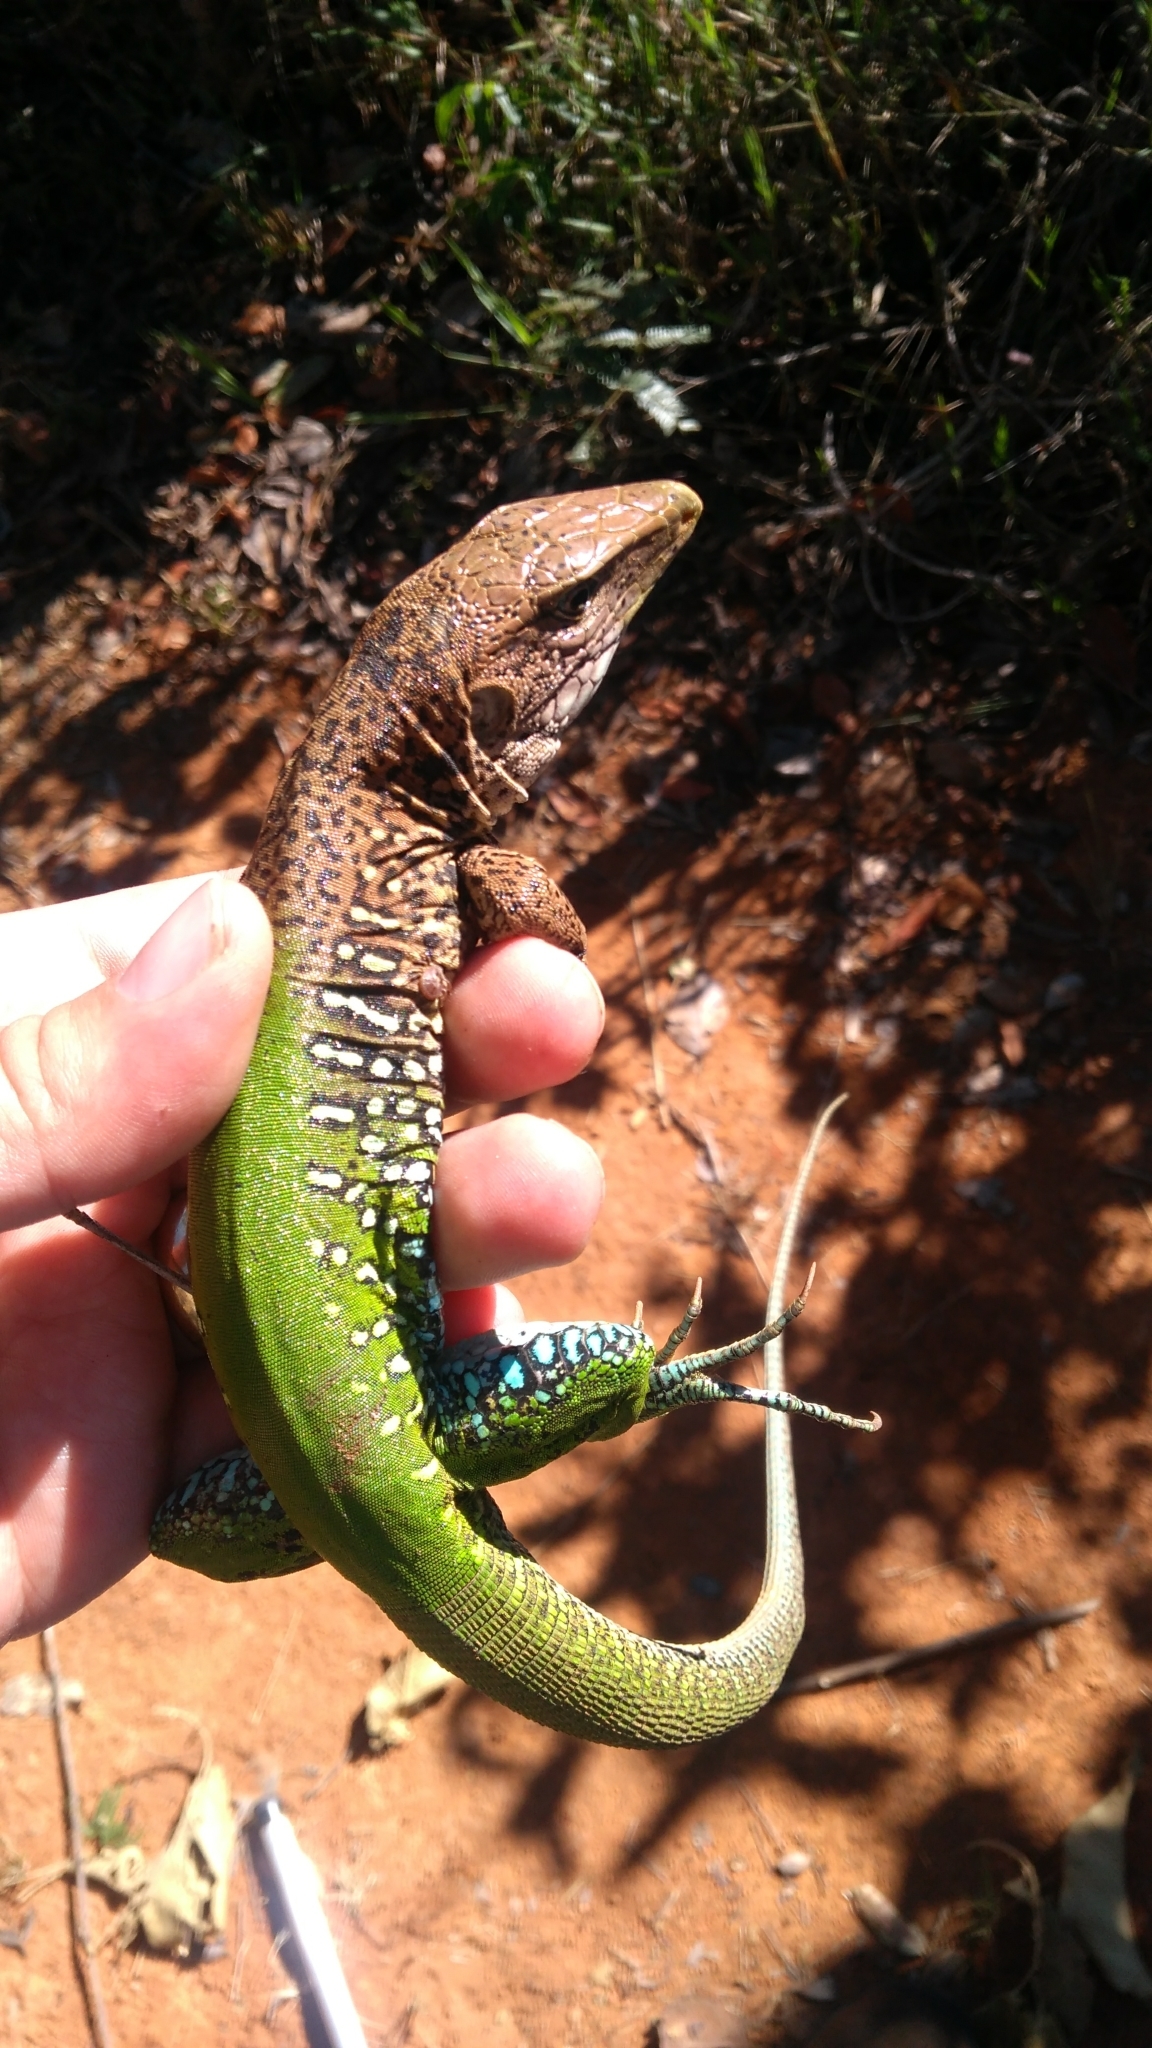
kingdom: Animalia
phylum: Chordata
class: Squamata
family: Teiidae
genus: Ameiva
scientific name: Ameiva ameiva
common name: Giant ameiva
